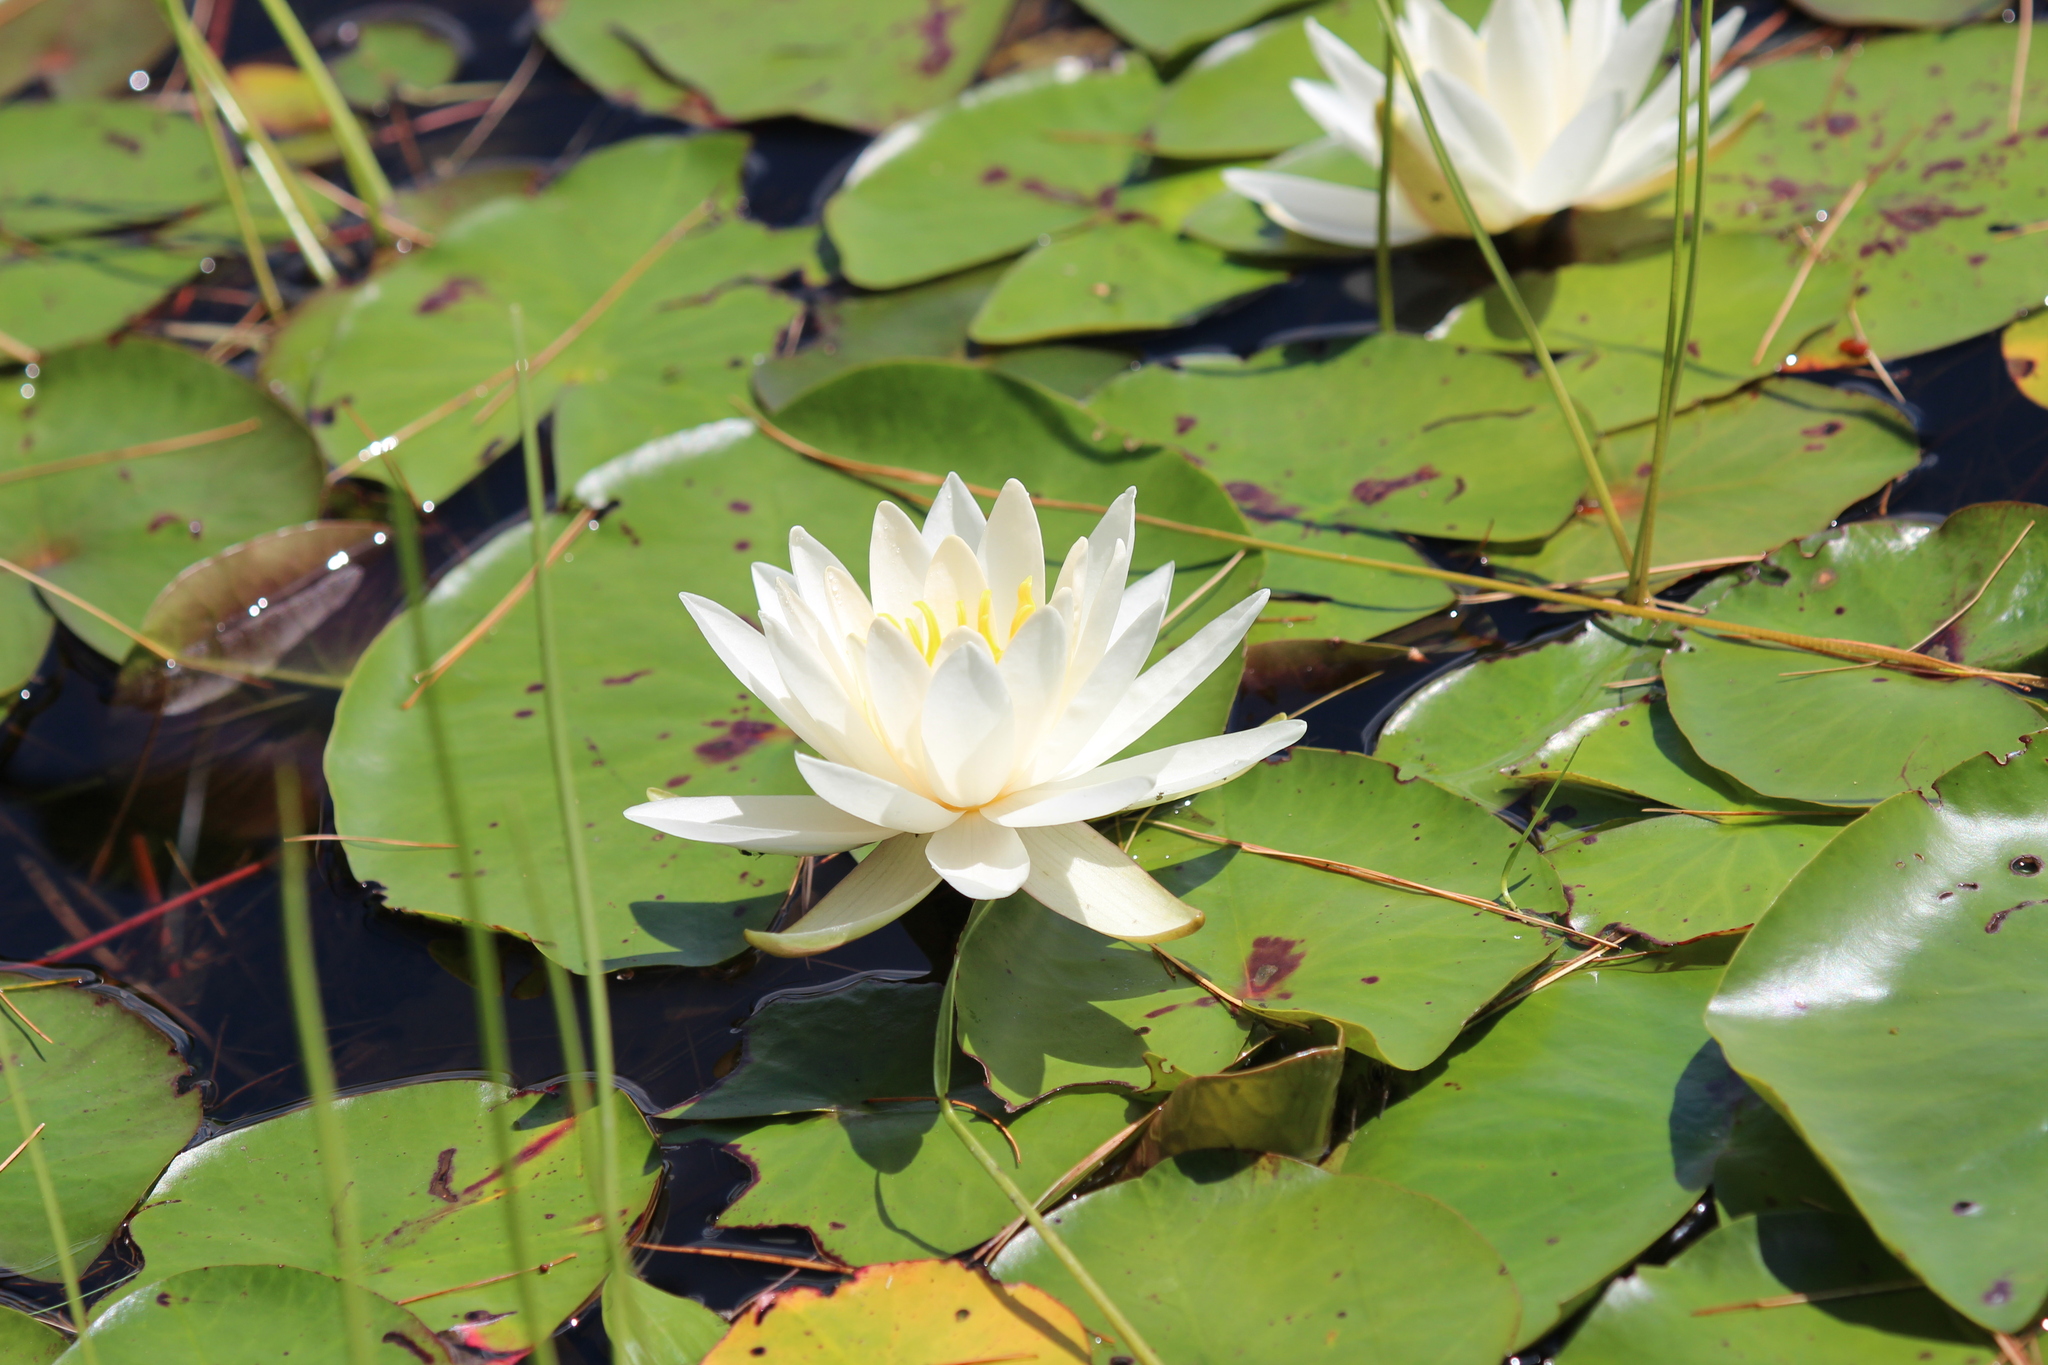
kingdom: Plantae
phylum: Tracheophyta
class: Magnoliopsida
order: Nymphaeales
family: Nymphaeaceae
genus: Nymphaea
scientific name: Nymphaea odorata
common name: Fragrant water-lily
